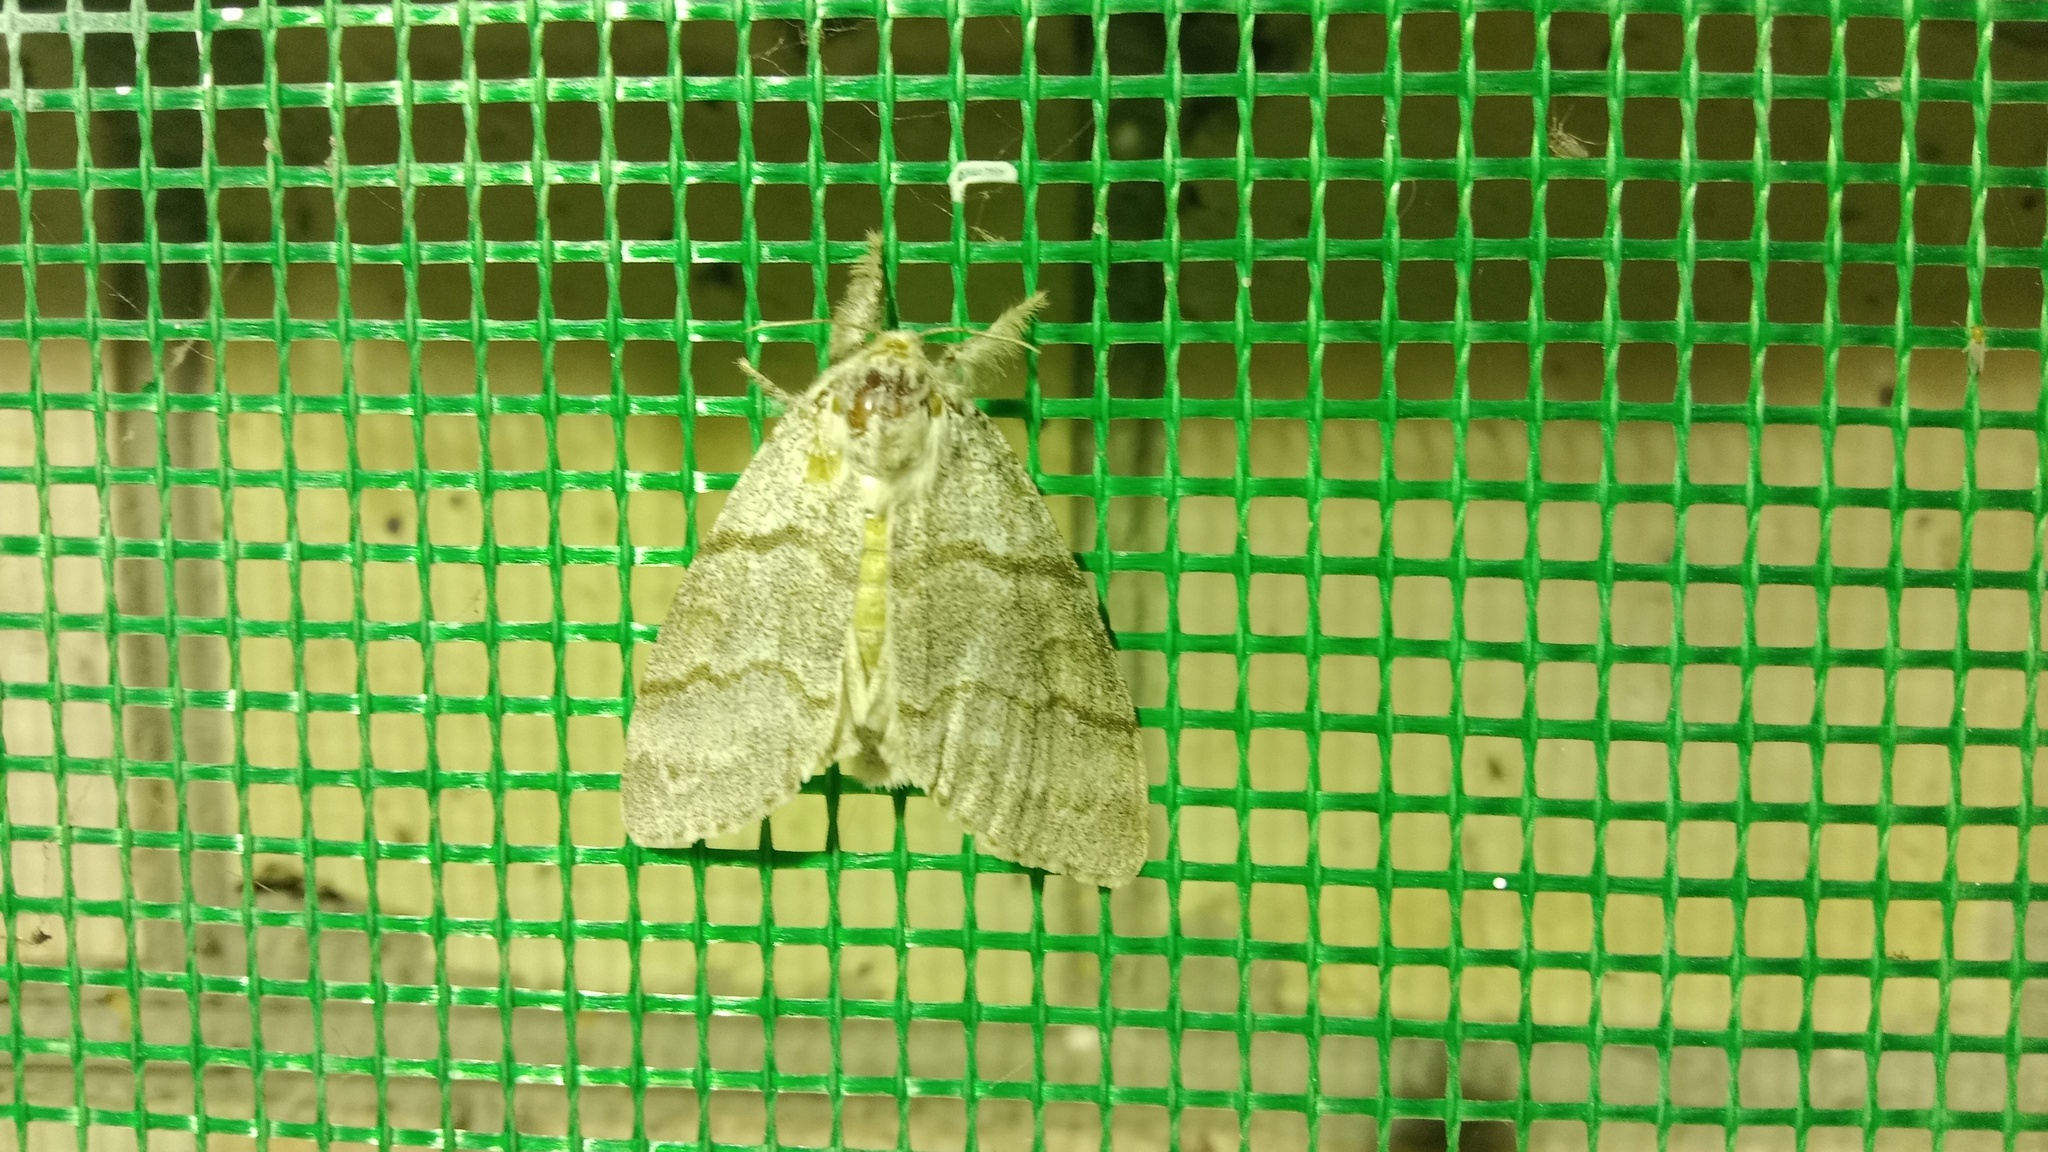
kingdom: Animalia
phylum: Arthropoda
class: Insecta
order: Lepidoptera
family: Erebidae
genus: Calliteara
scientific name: Calliteara pudibunda
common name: Pale tussock
